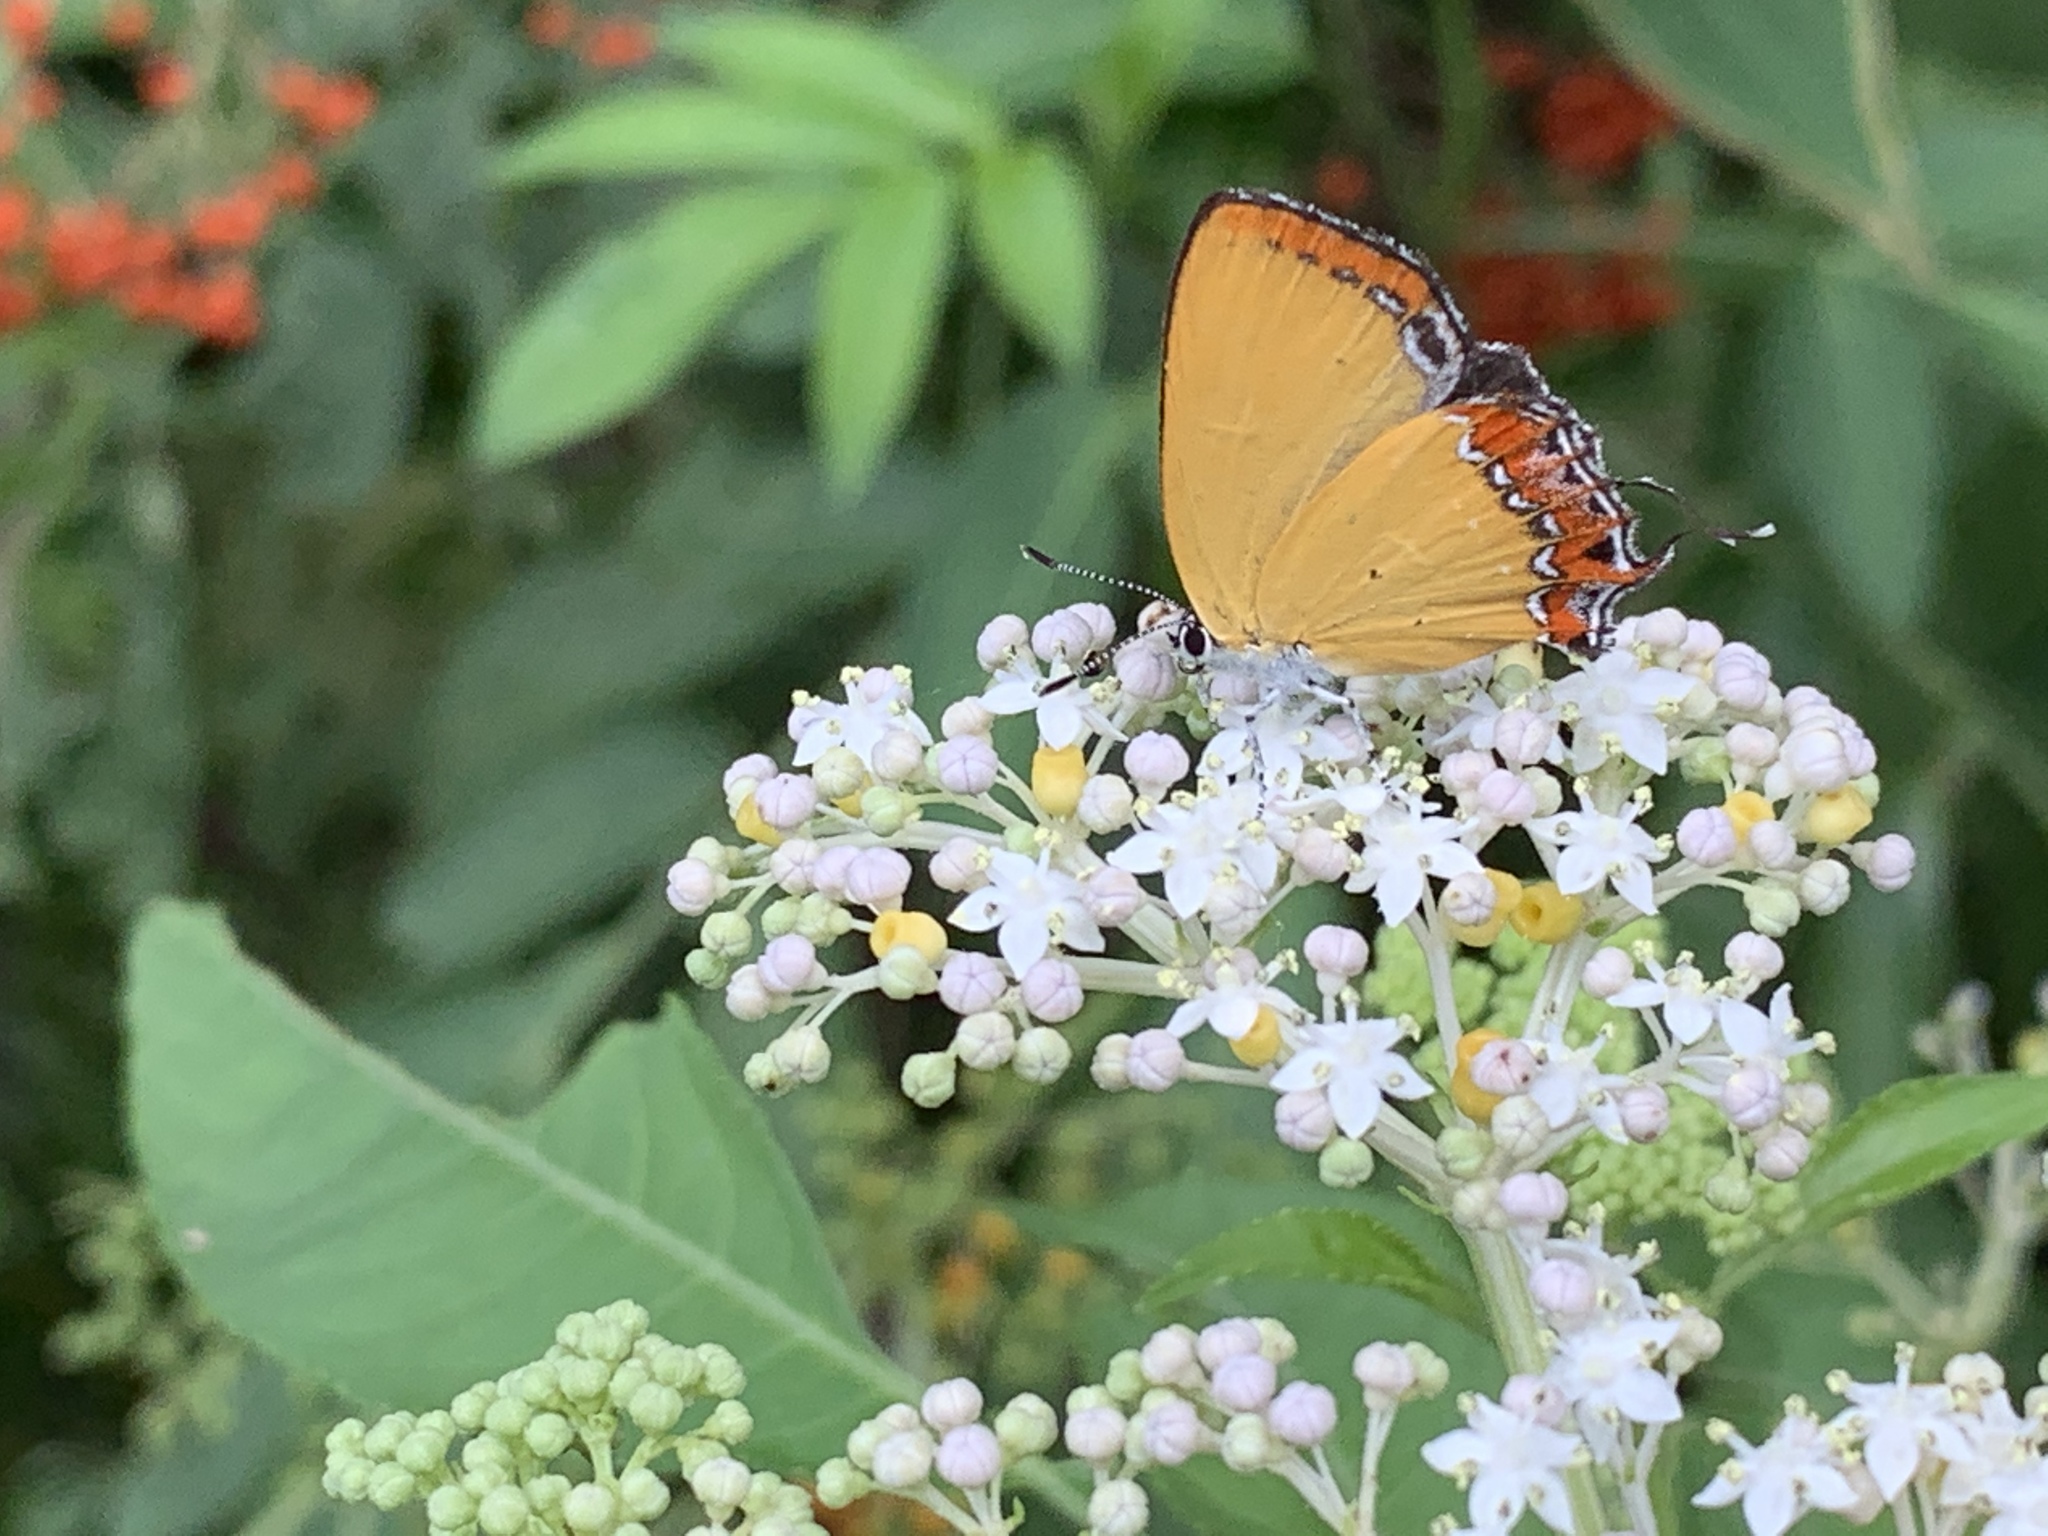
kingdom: Animalia
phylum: Arthropoda
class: Insecta
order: Lepidoptera
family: Lycaenidae
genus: Heliophorus
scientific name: Heliophorus ila
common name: Restricted purple sapphire
